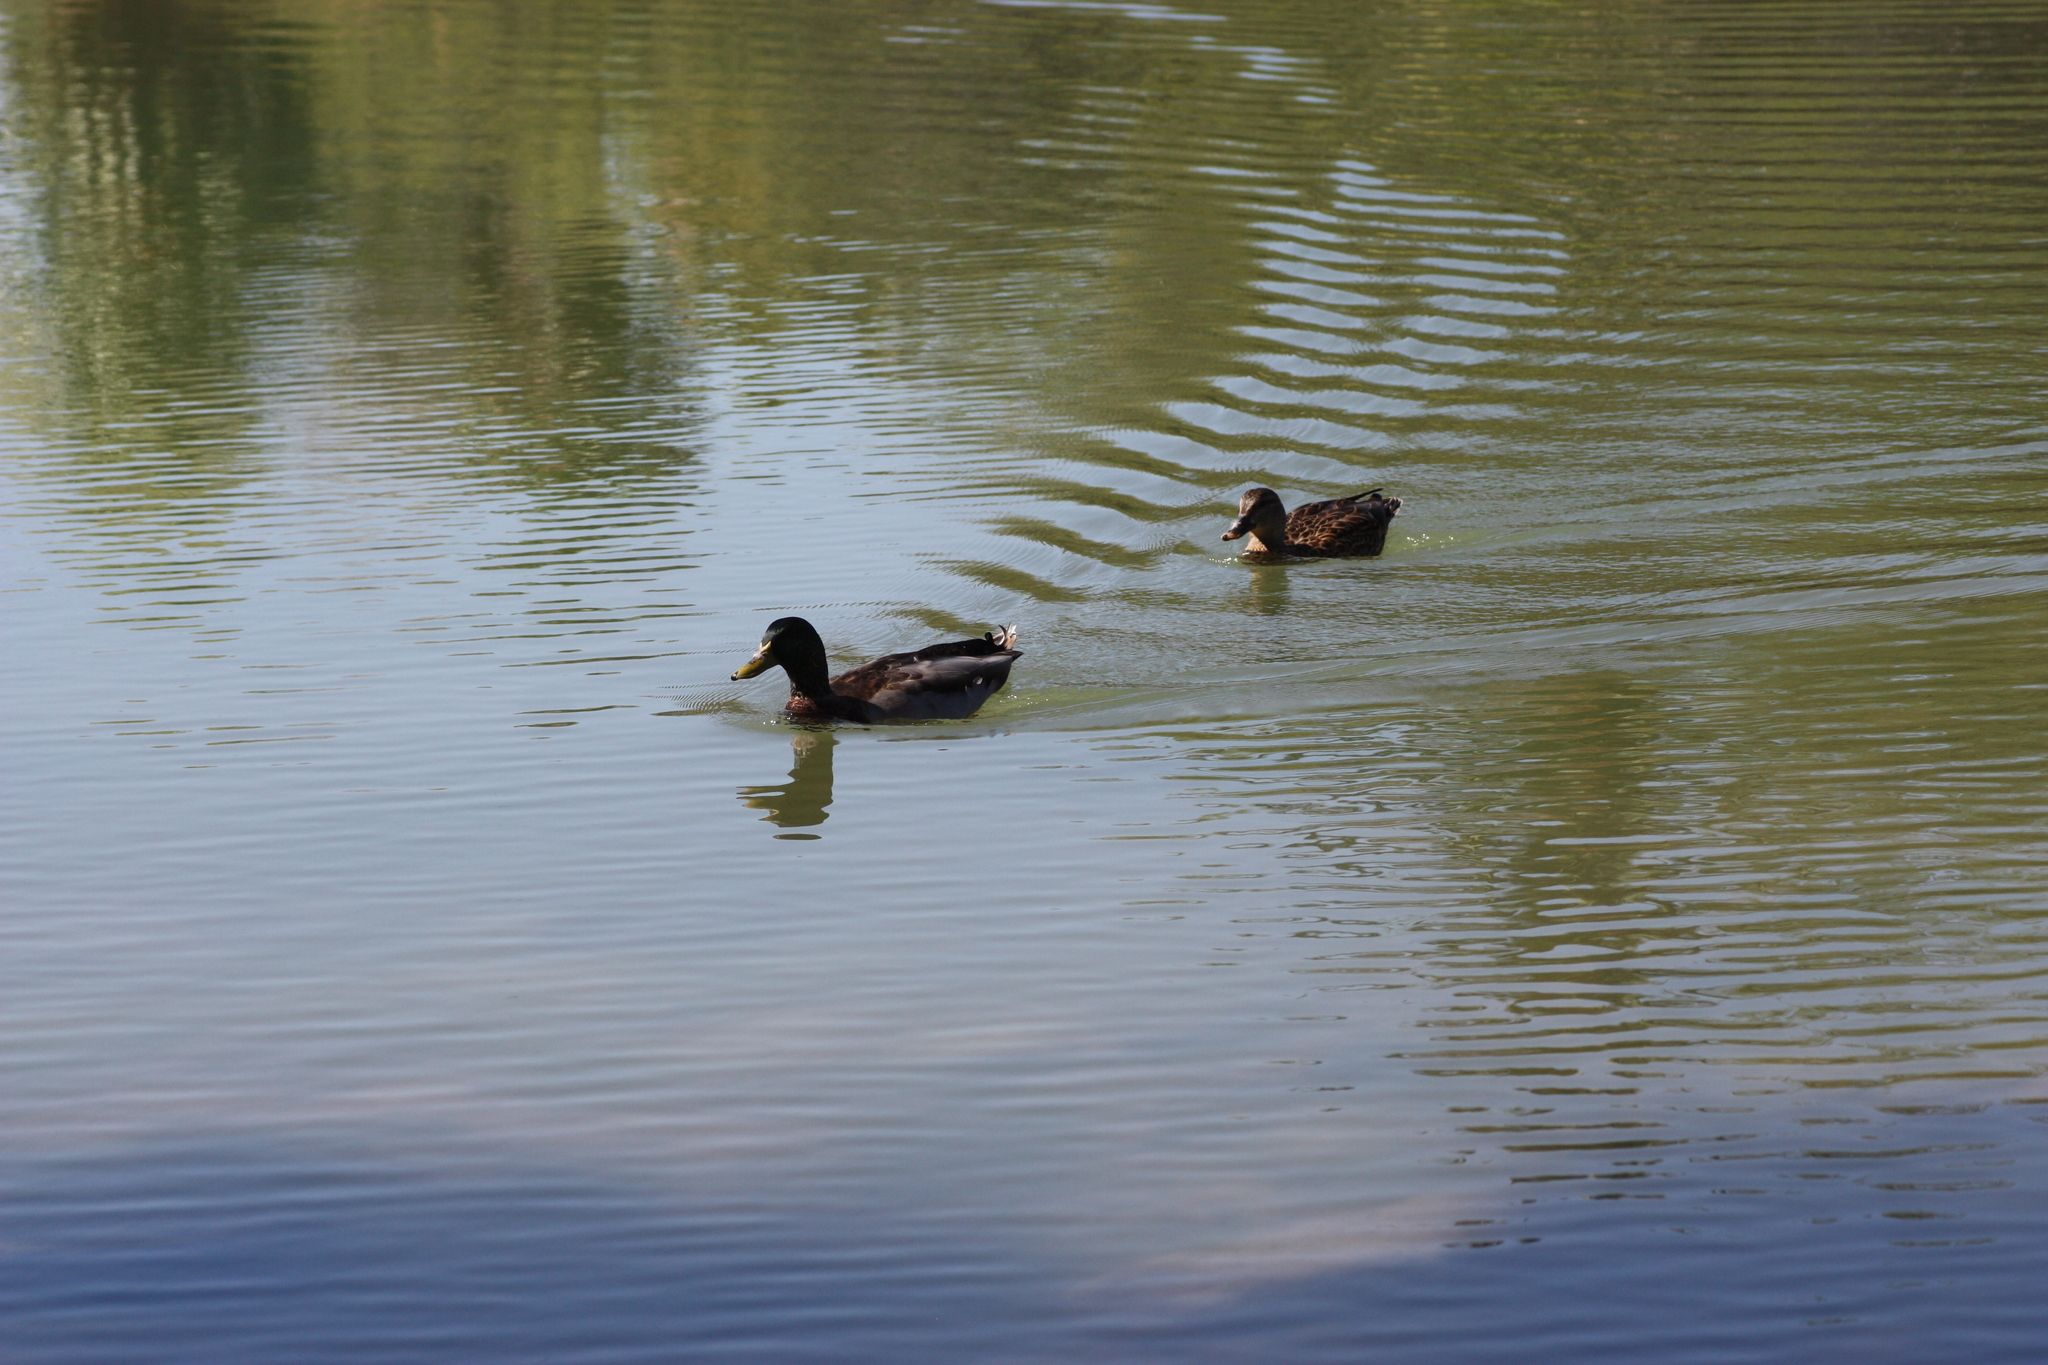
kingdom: Animalia
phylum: Chordata
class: Aves
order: Anseriformes
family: Anatidae
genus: Anas
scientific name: Anas platyrhynchos
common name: Mallard
